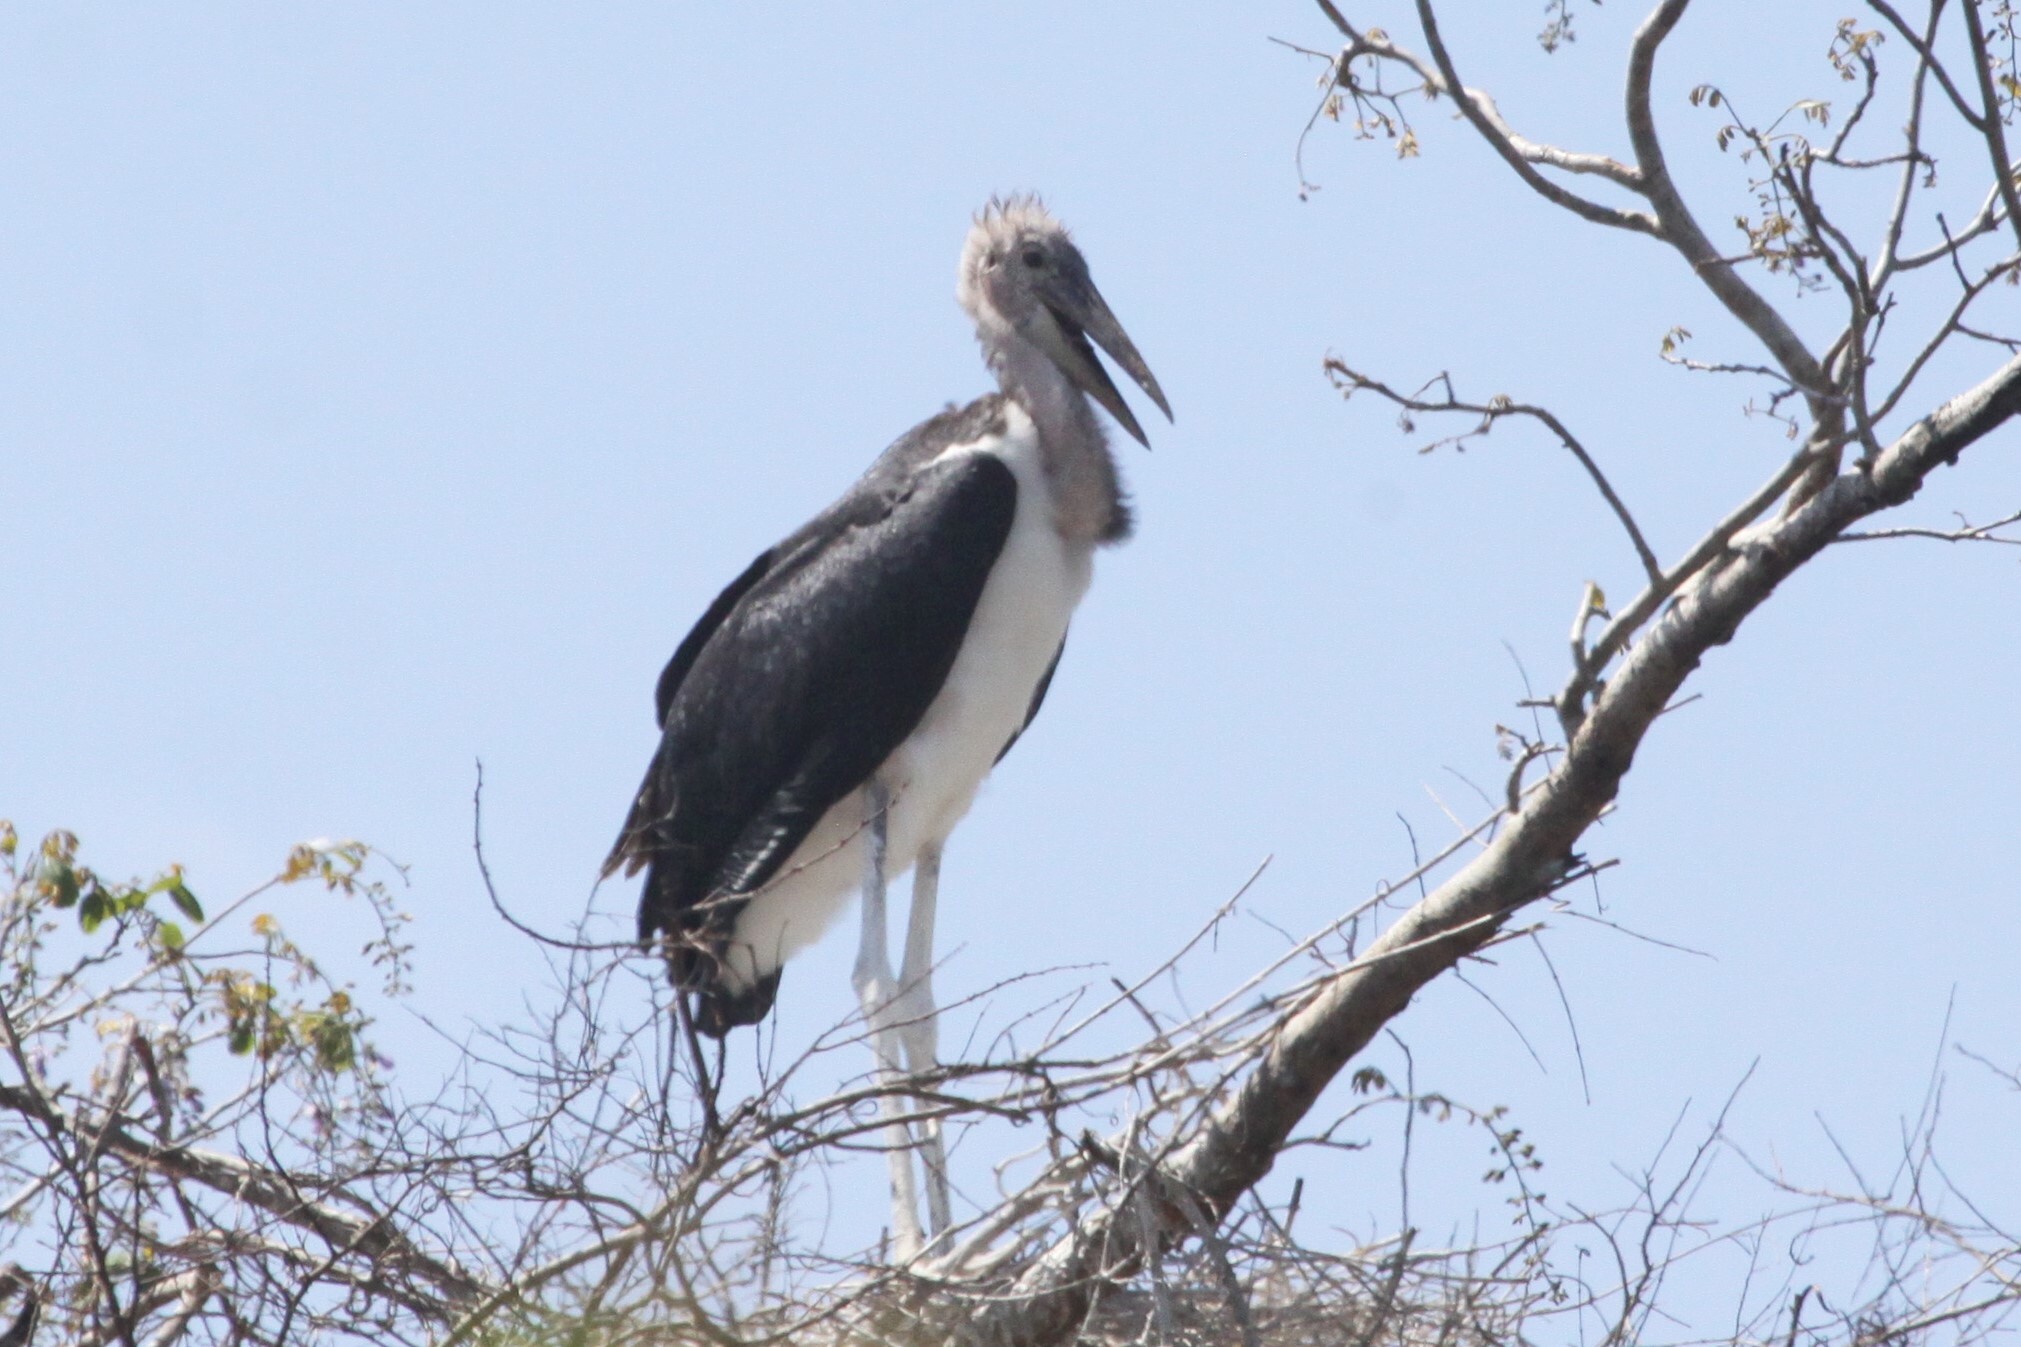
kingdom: Animalia
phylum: Chordata
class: Aves
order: Ciconiiformes
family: Ciconiidae
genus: Leptoptilos
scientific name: Leptoptilos crumenifer
